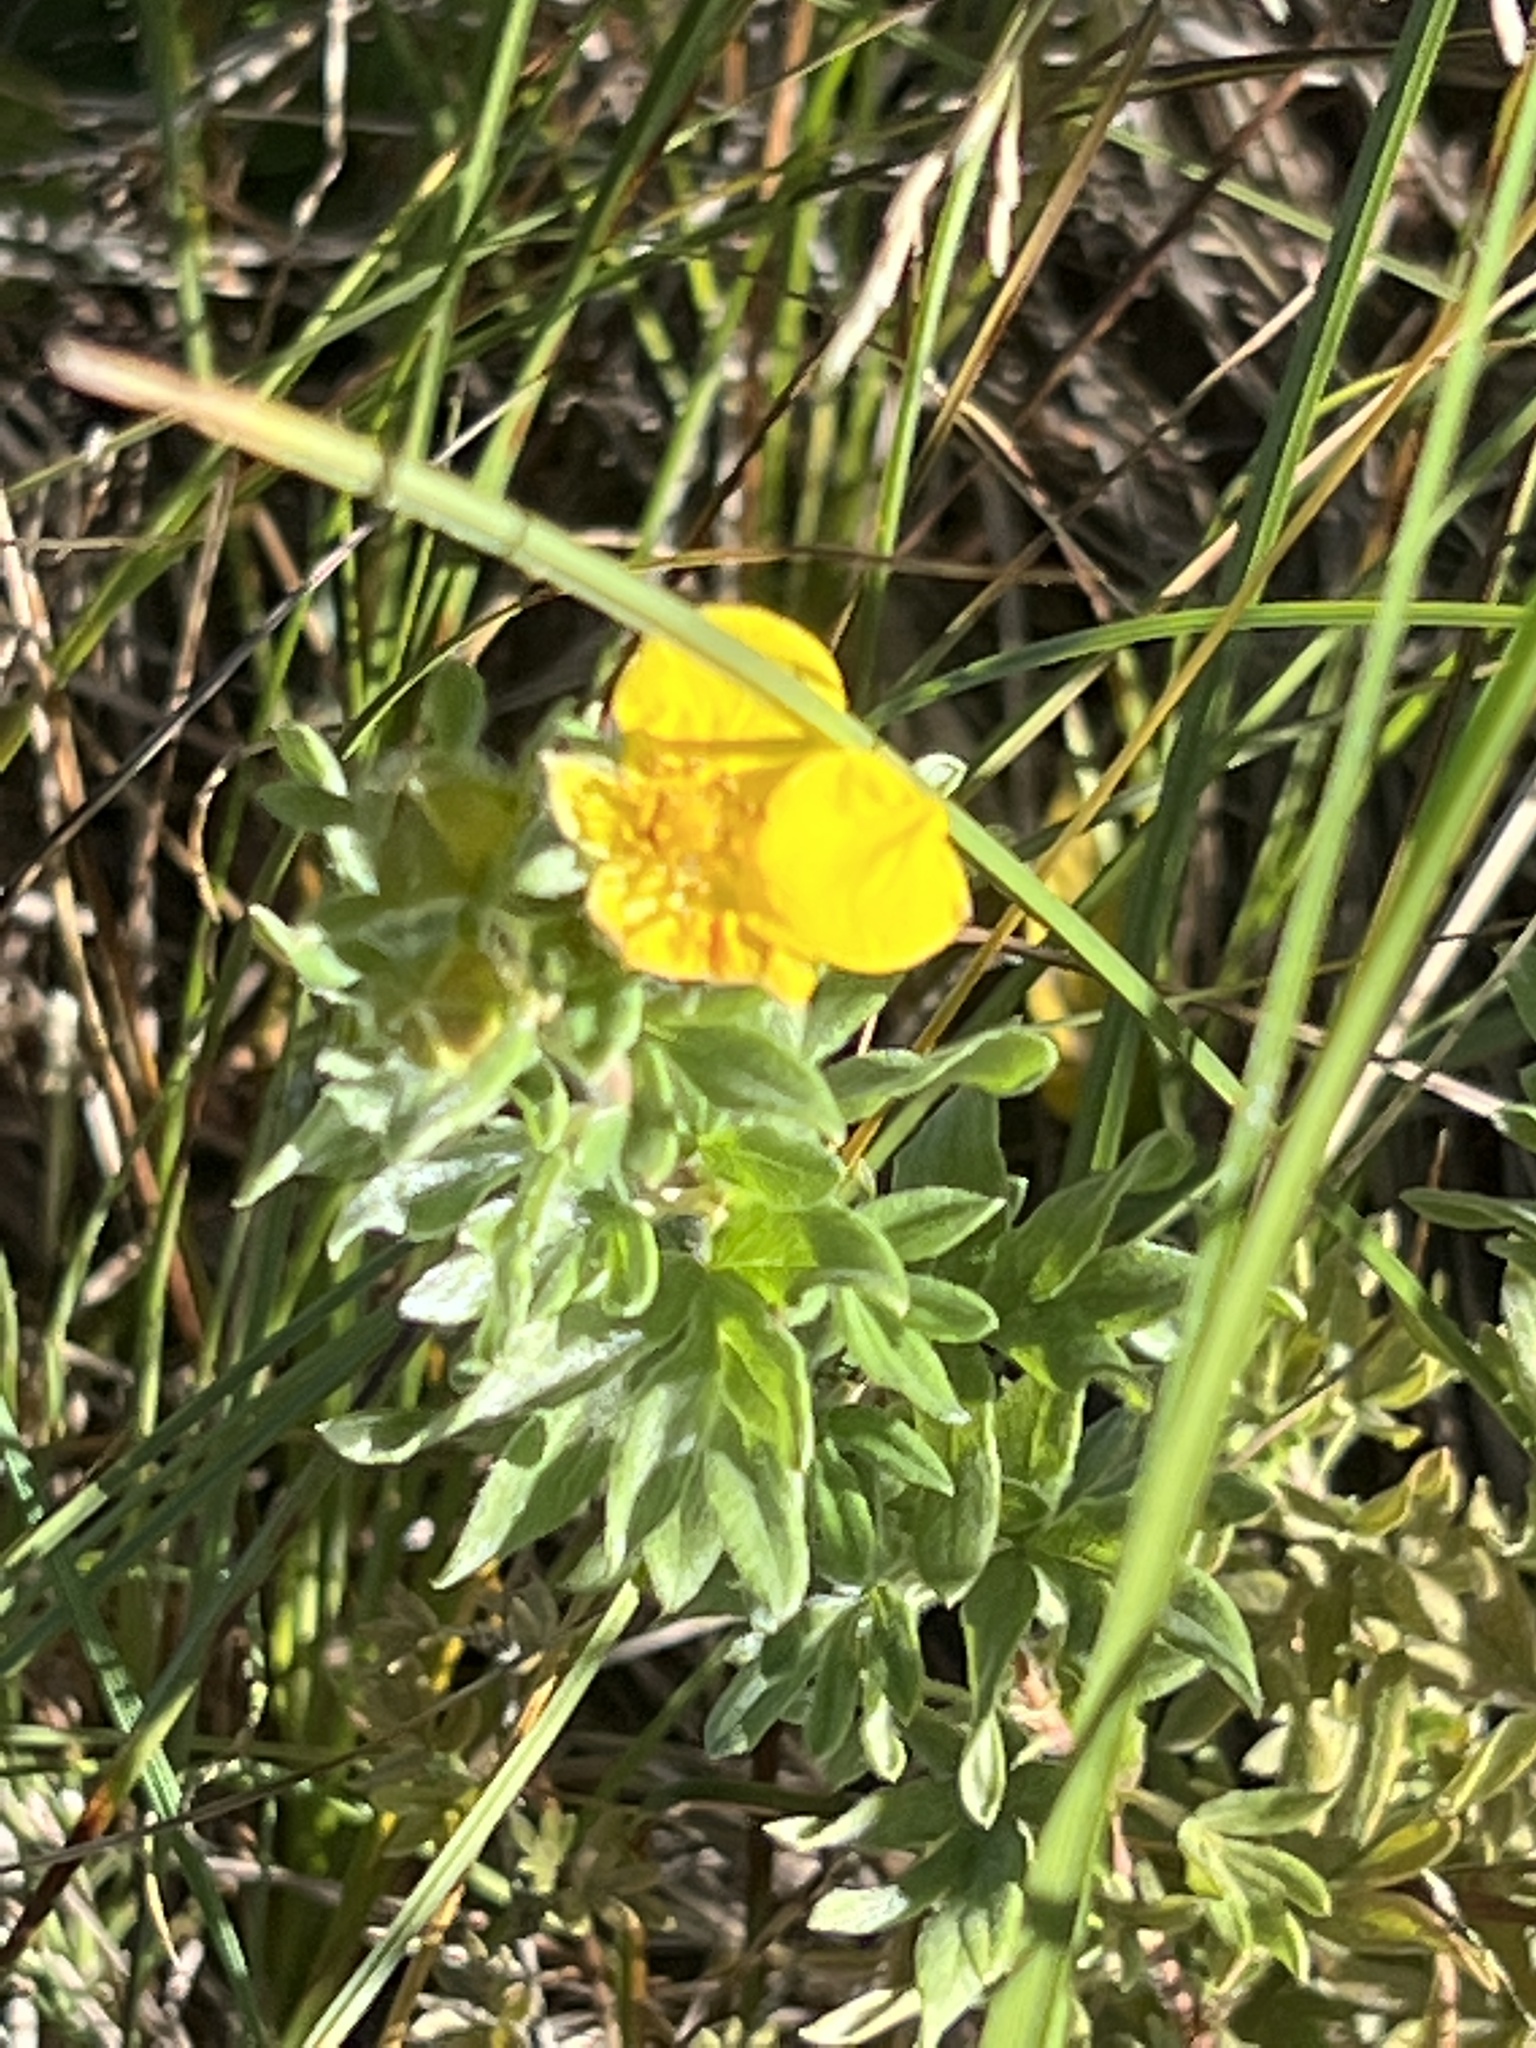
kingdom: Plantae
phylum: Tracheophyta
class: Magnoliopsida
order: Rosales
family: Rosaceae
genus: Dasiphora
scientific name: Dasiphora fruticosa
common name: Shrubby cinquefoil
